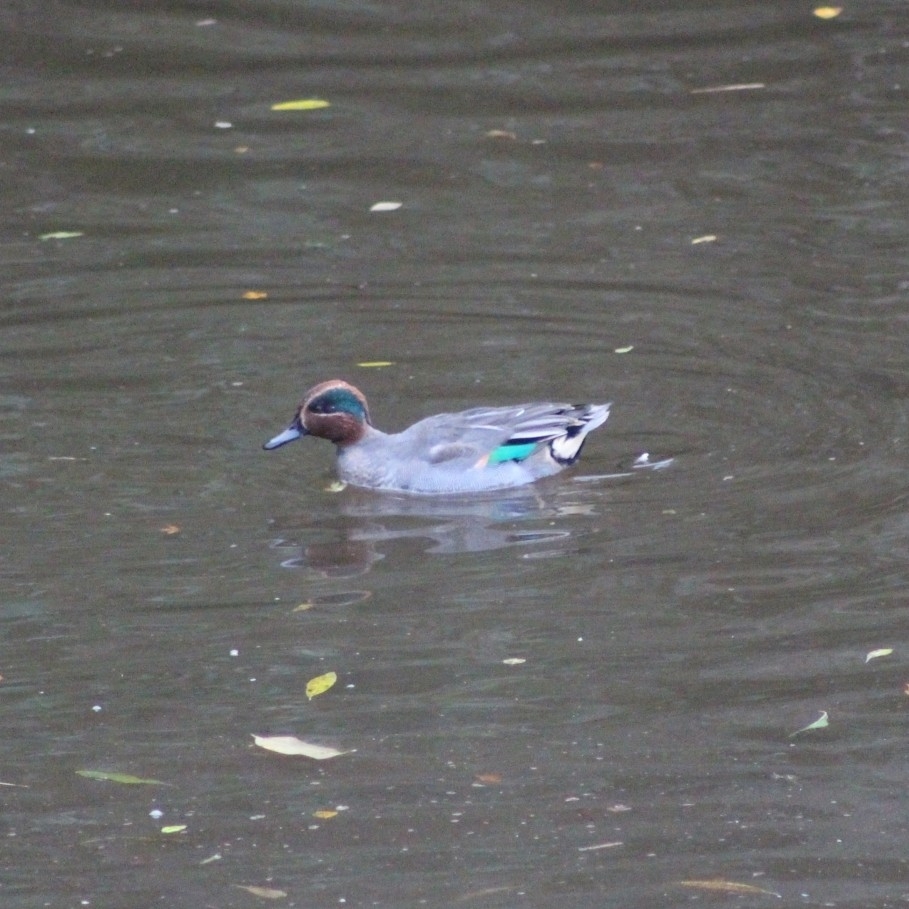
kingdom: Animalia
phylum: Chordata
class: Aves
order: Anseriformes
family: Anatidae
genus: Anas
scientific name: Anas crecca
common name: Eurasian teal
